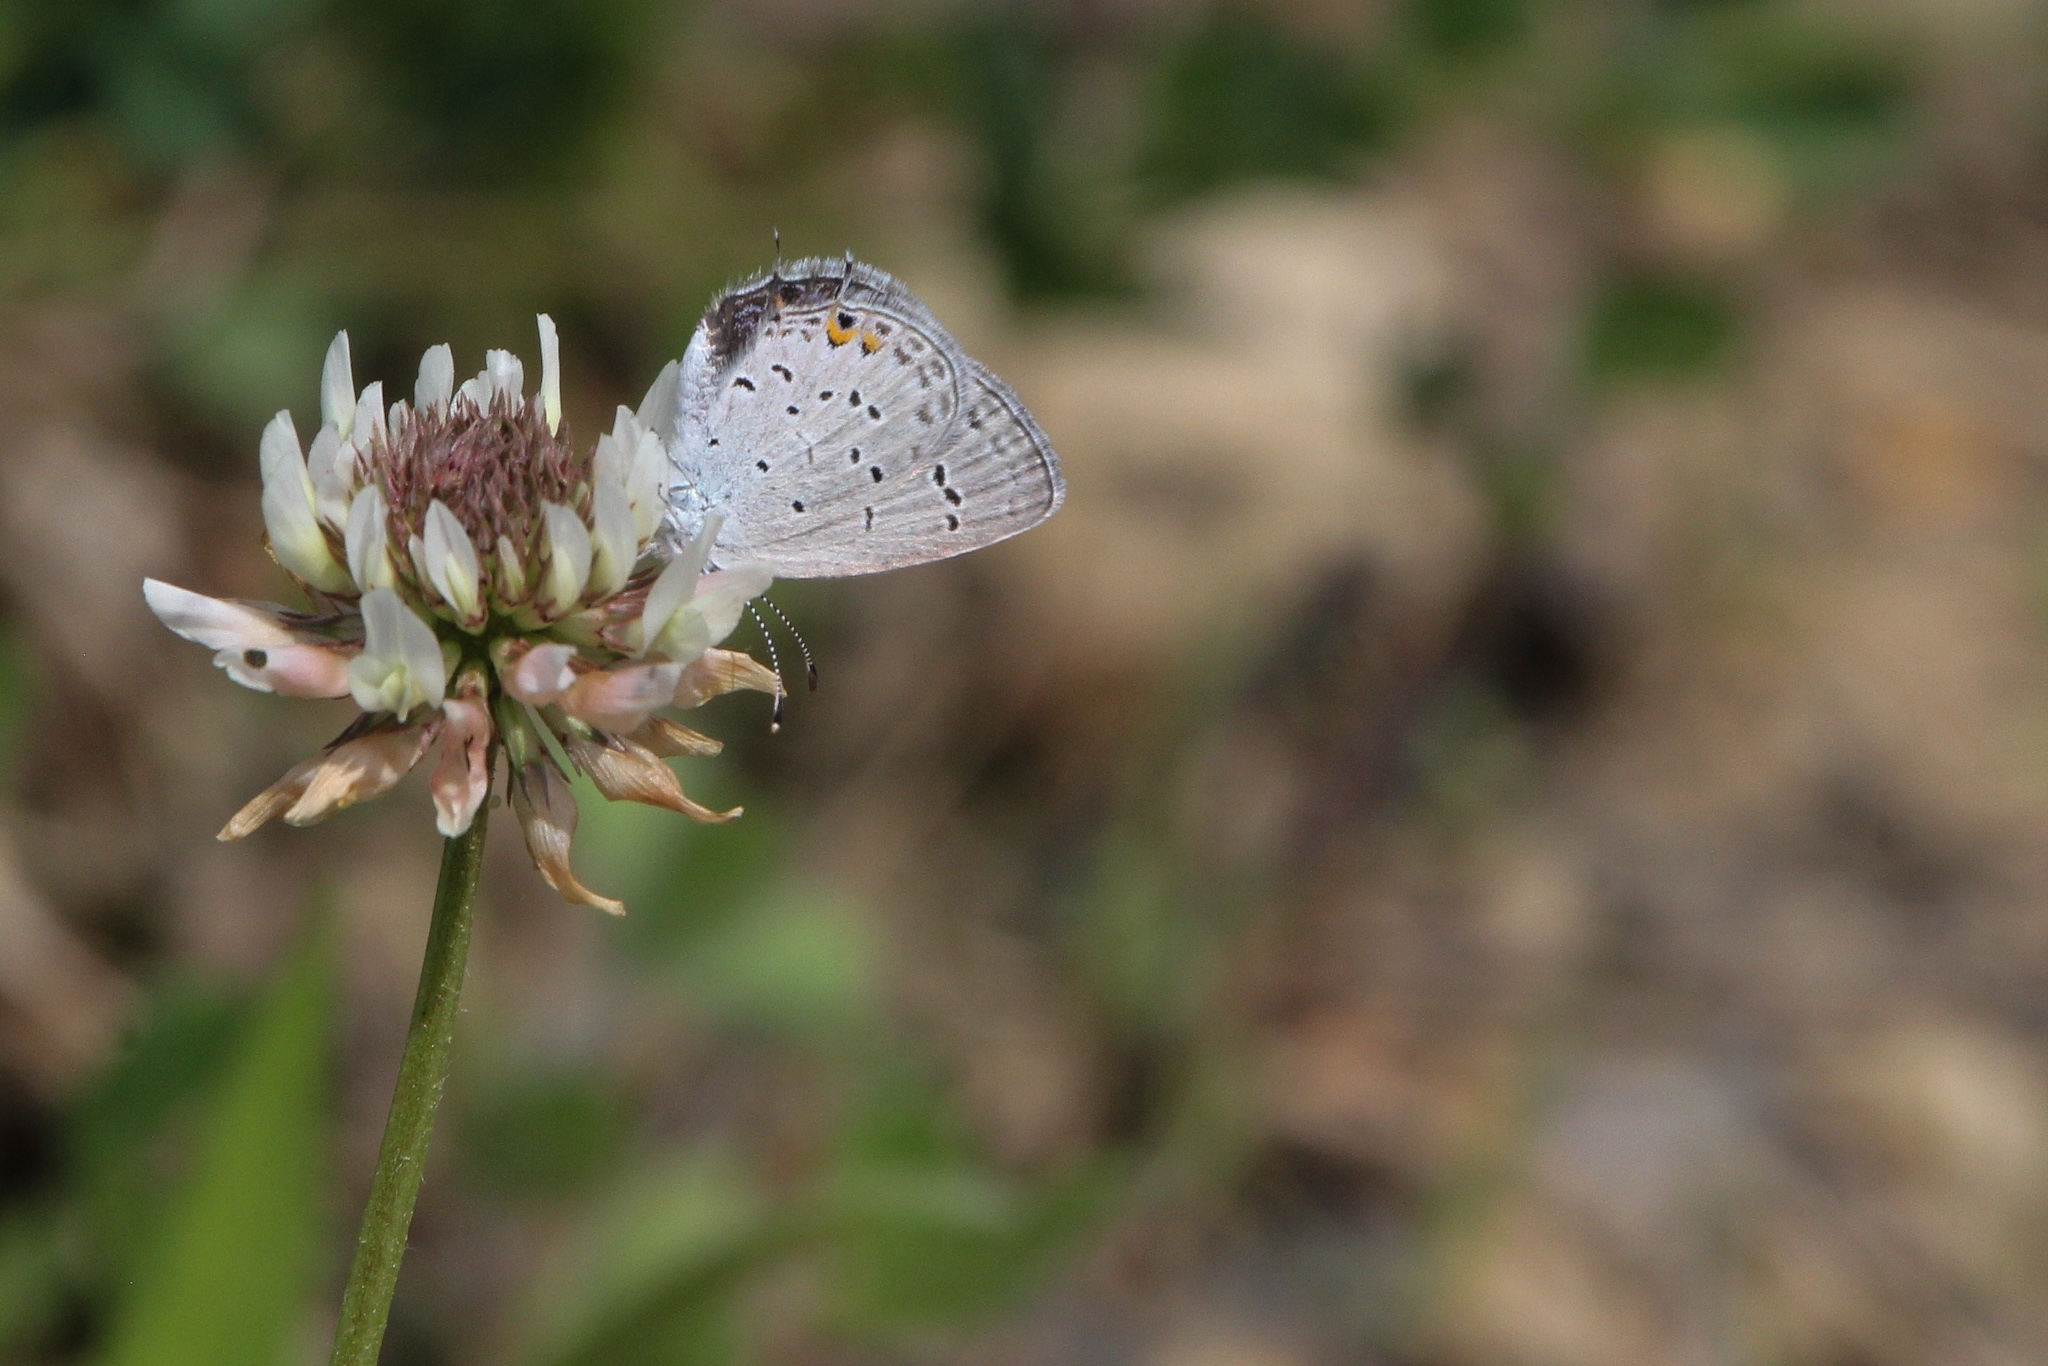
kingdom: Animalia
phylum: Arthropoda
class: Insecta
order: Lepidoptera
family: Lycaenidae
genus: Elkalyce
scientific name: Elkalyce comyntas
